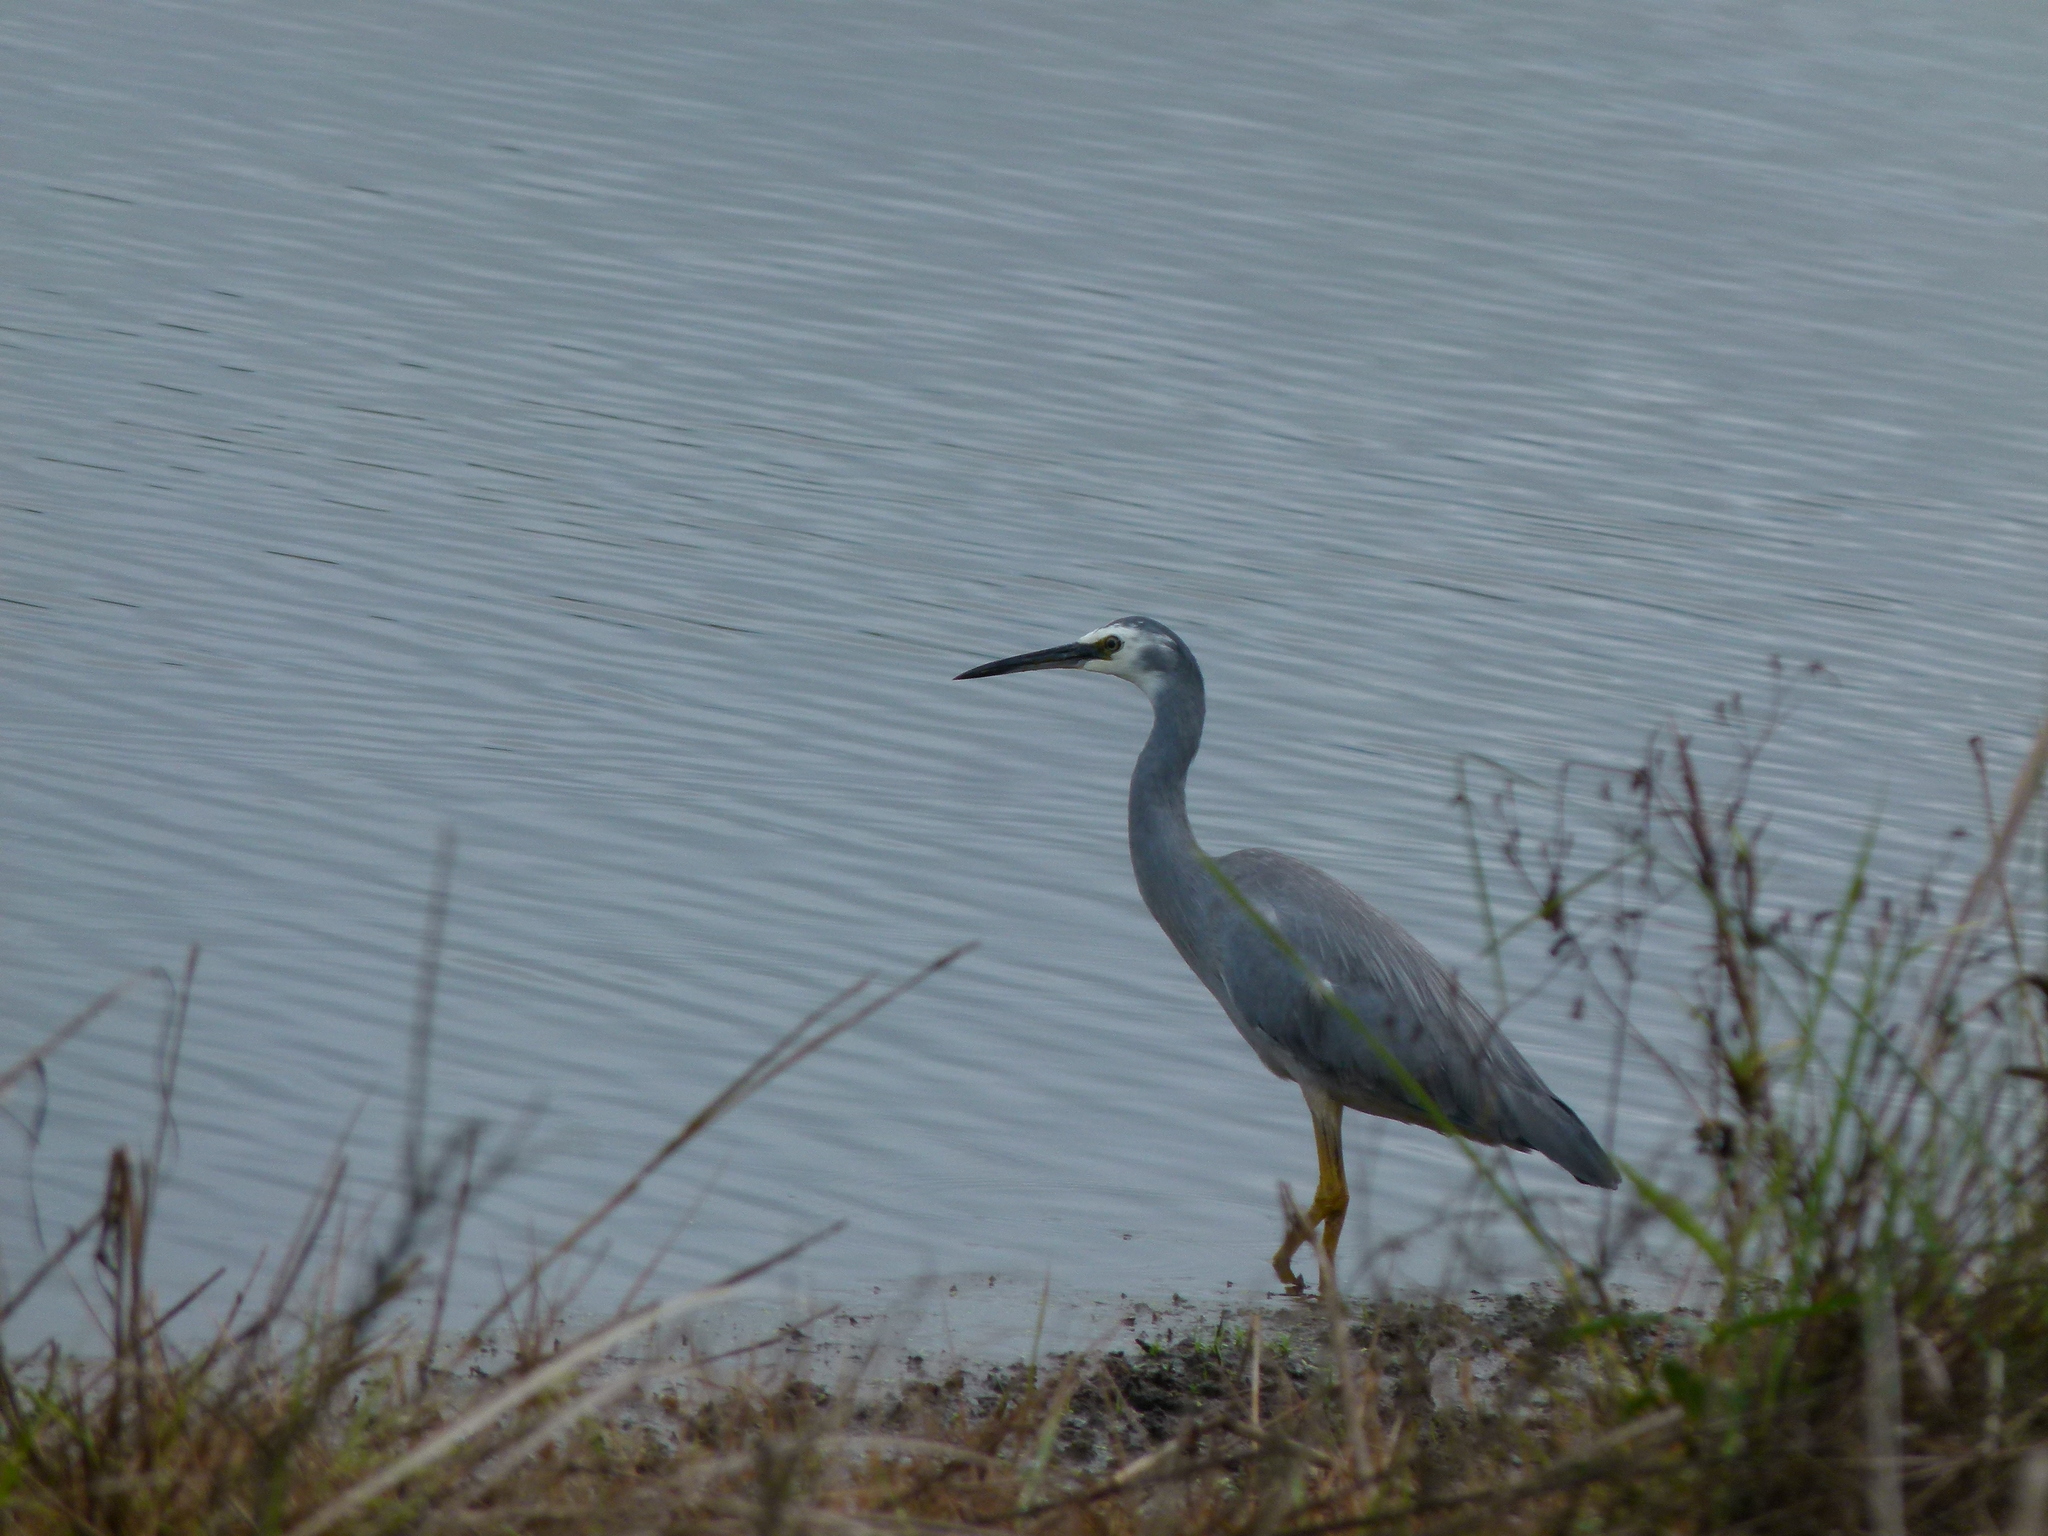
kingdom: Animalia
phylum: Chordata
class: Aves
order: Pelecaniformes
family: Ardeidae
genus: Egretta
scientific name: Egretta novaehollandiae
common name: White-faced heron
